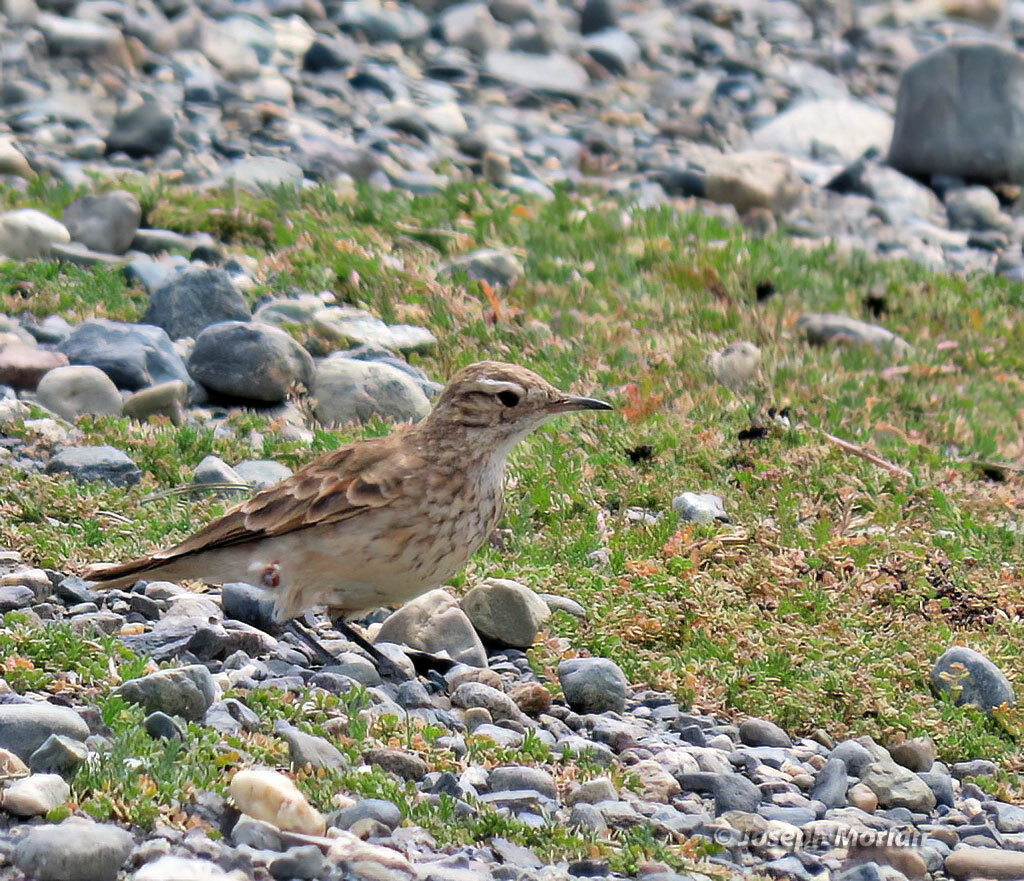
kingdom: Animalia
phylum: Chordata
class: Aves
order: Passeriformes
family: Furnariidae
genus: Geositta
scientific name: Geositta cunicularia
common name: Common miner
